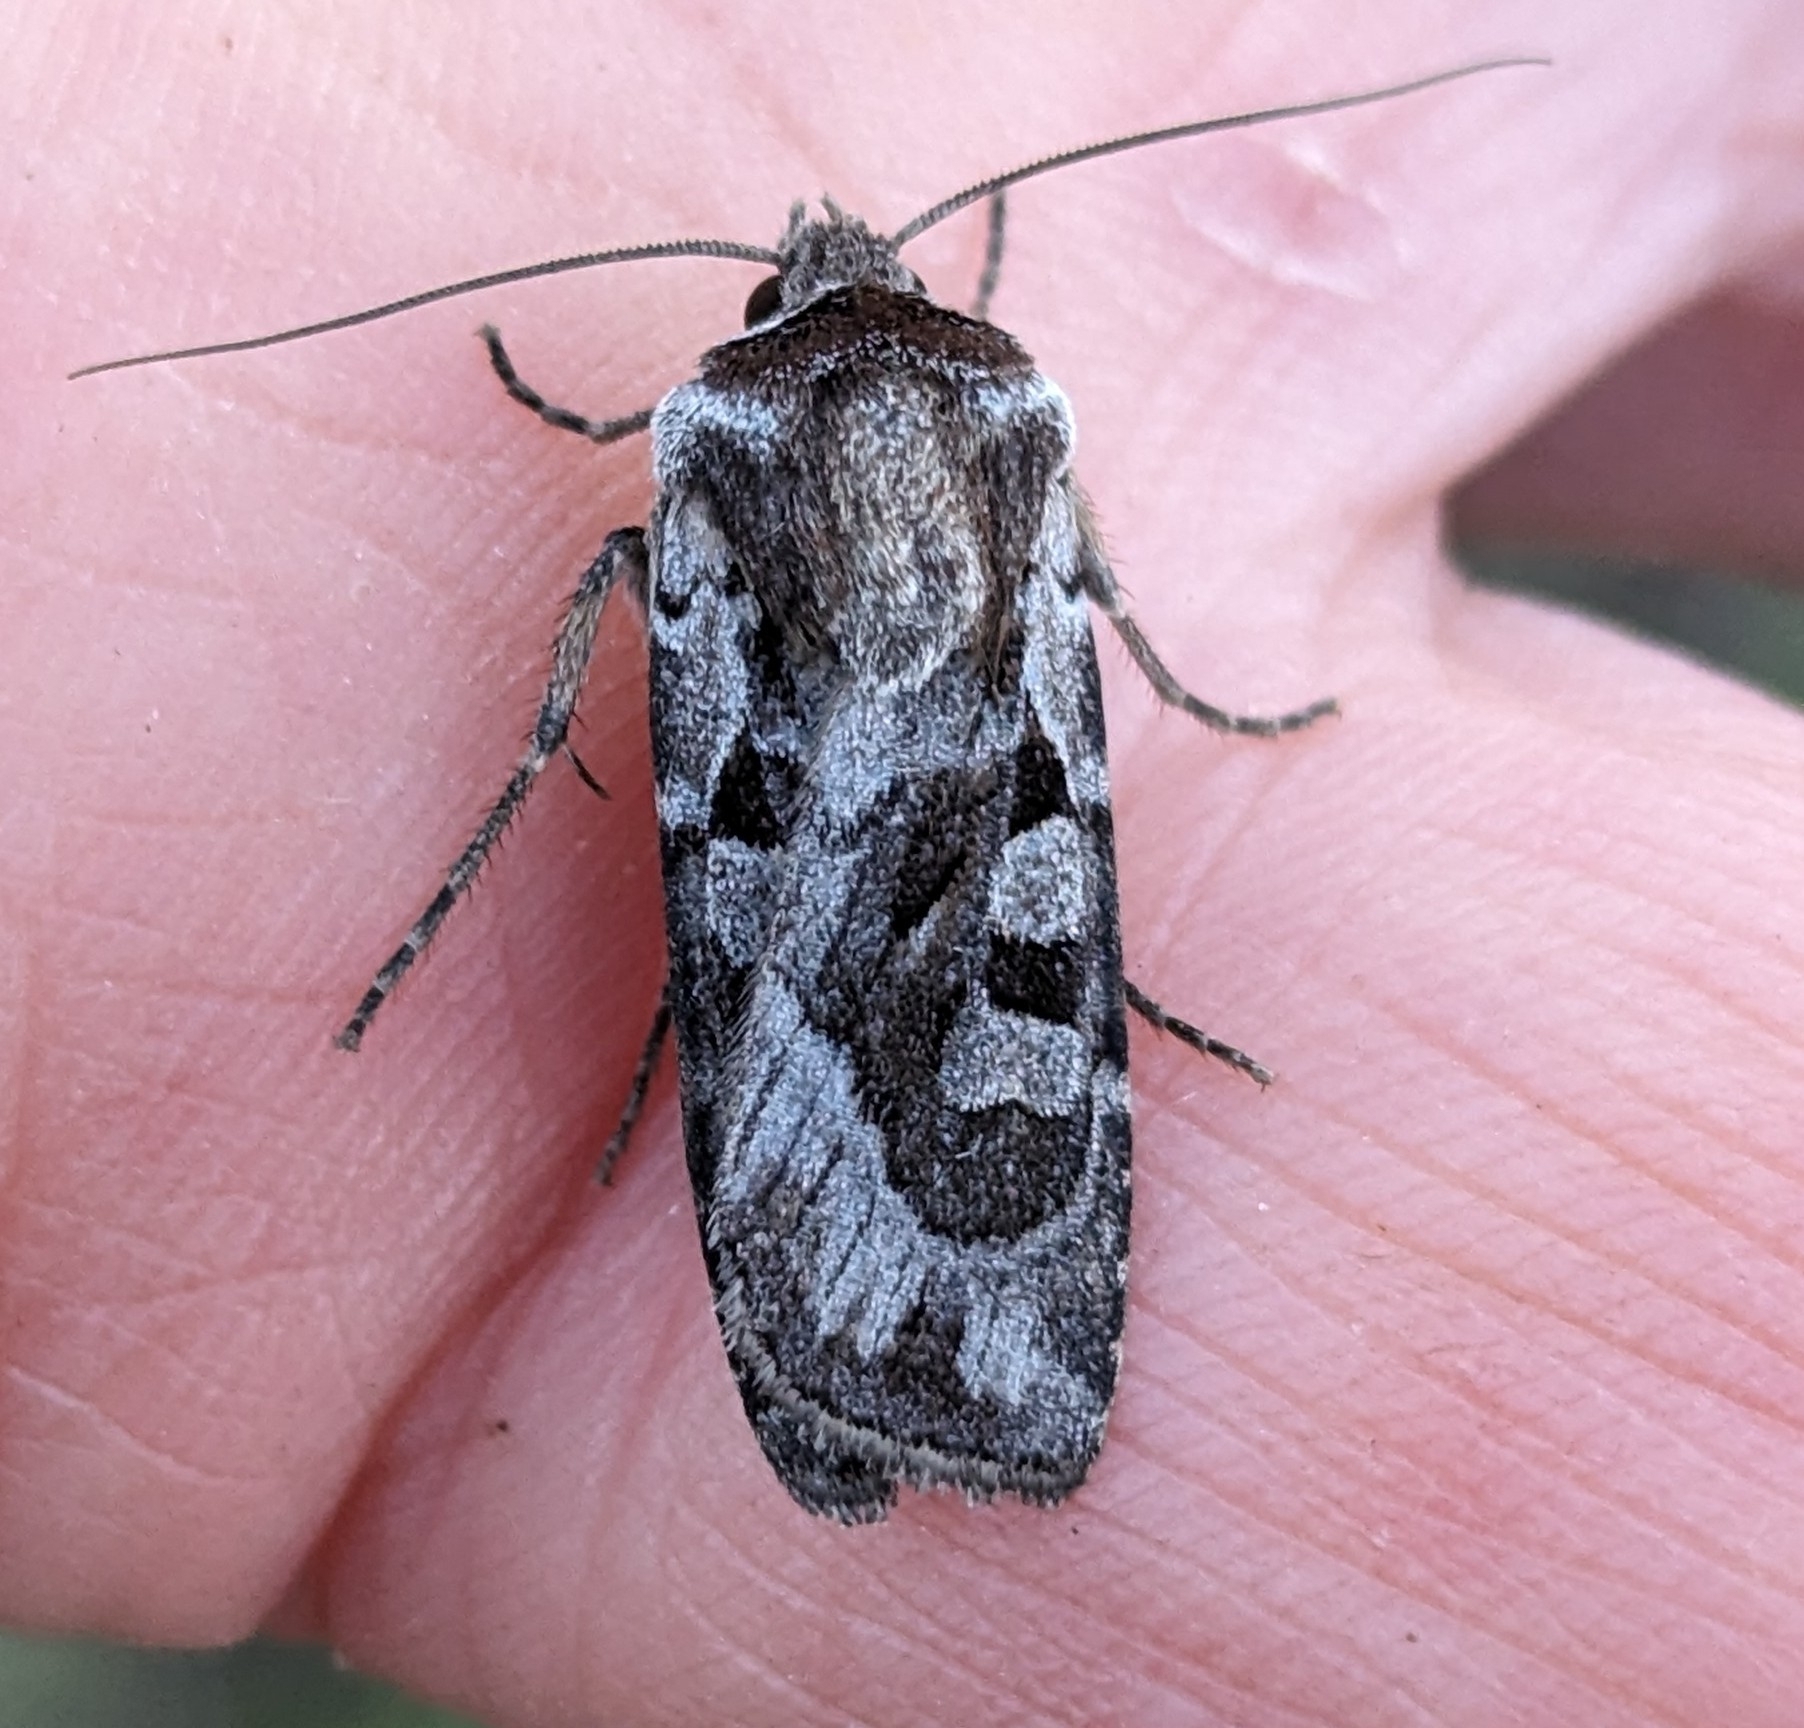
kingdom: Animalia
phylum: Arthropoda
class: Insecta
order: Lepidoptera
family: Noctuidae
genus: Euxoa
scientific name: Euxoa servita
